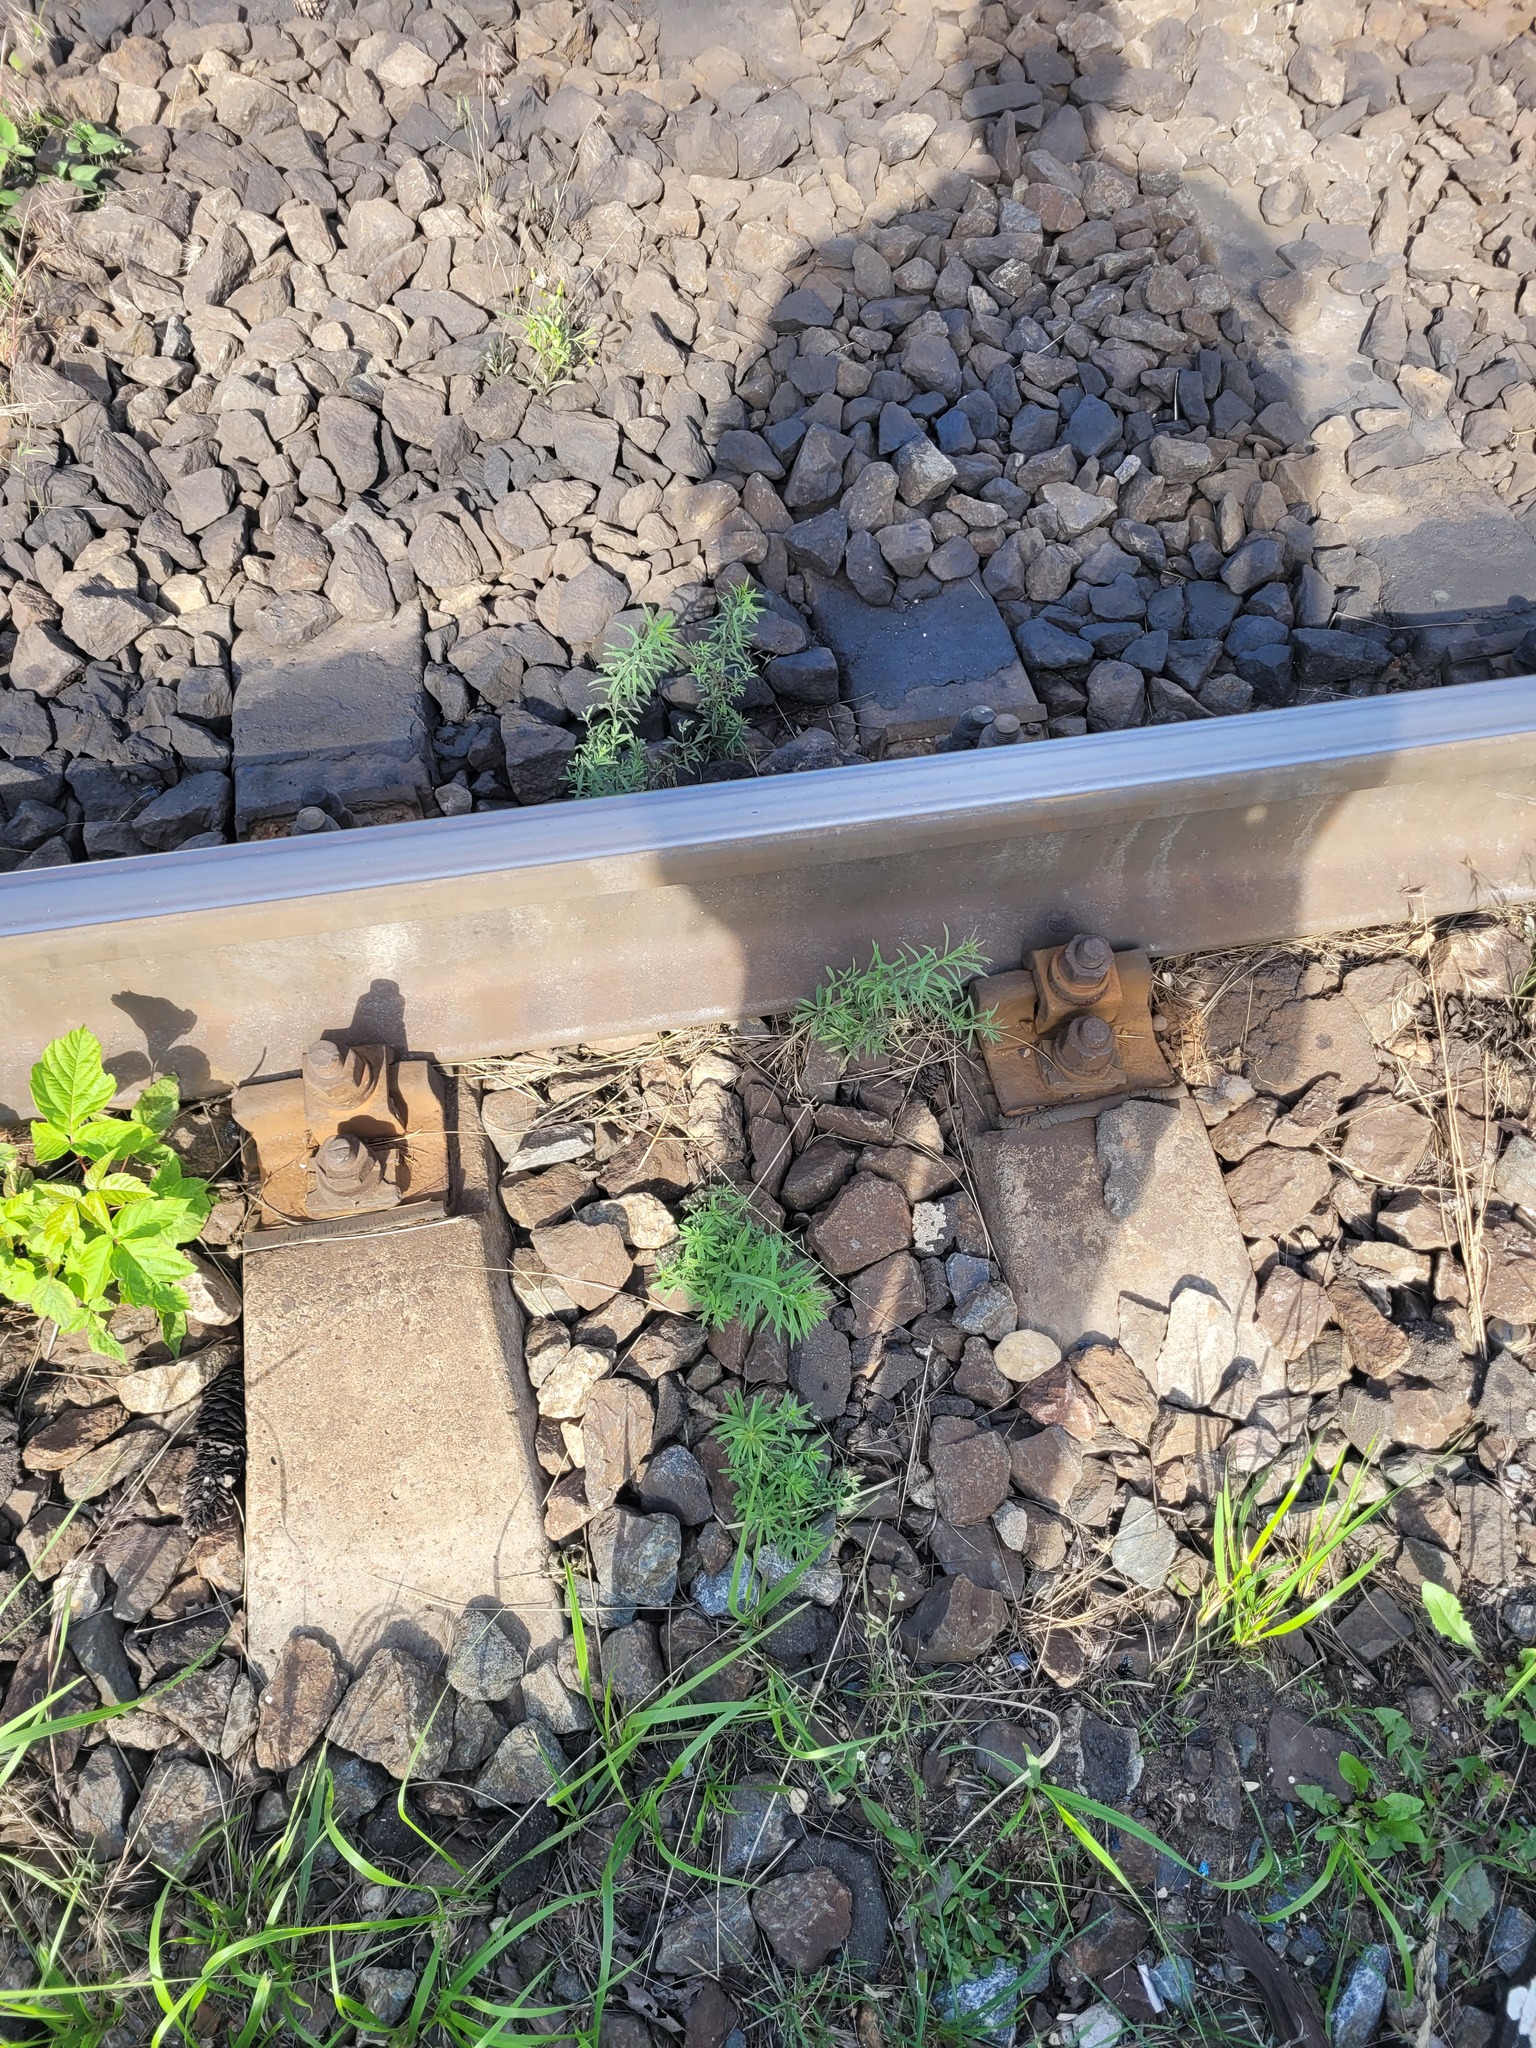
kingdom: Plantae
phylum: Tracheophyta
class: Magnoliopsida
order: Lamiales
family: Plantaginaceae
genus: Linaria
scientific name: Linaria vulgaris
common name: Butter and eggs
